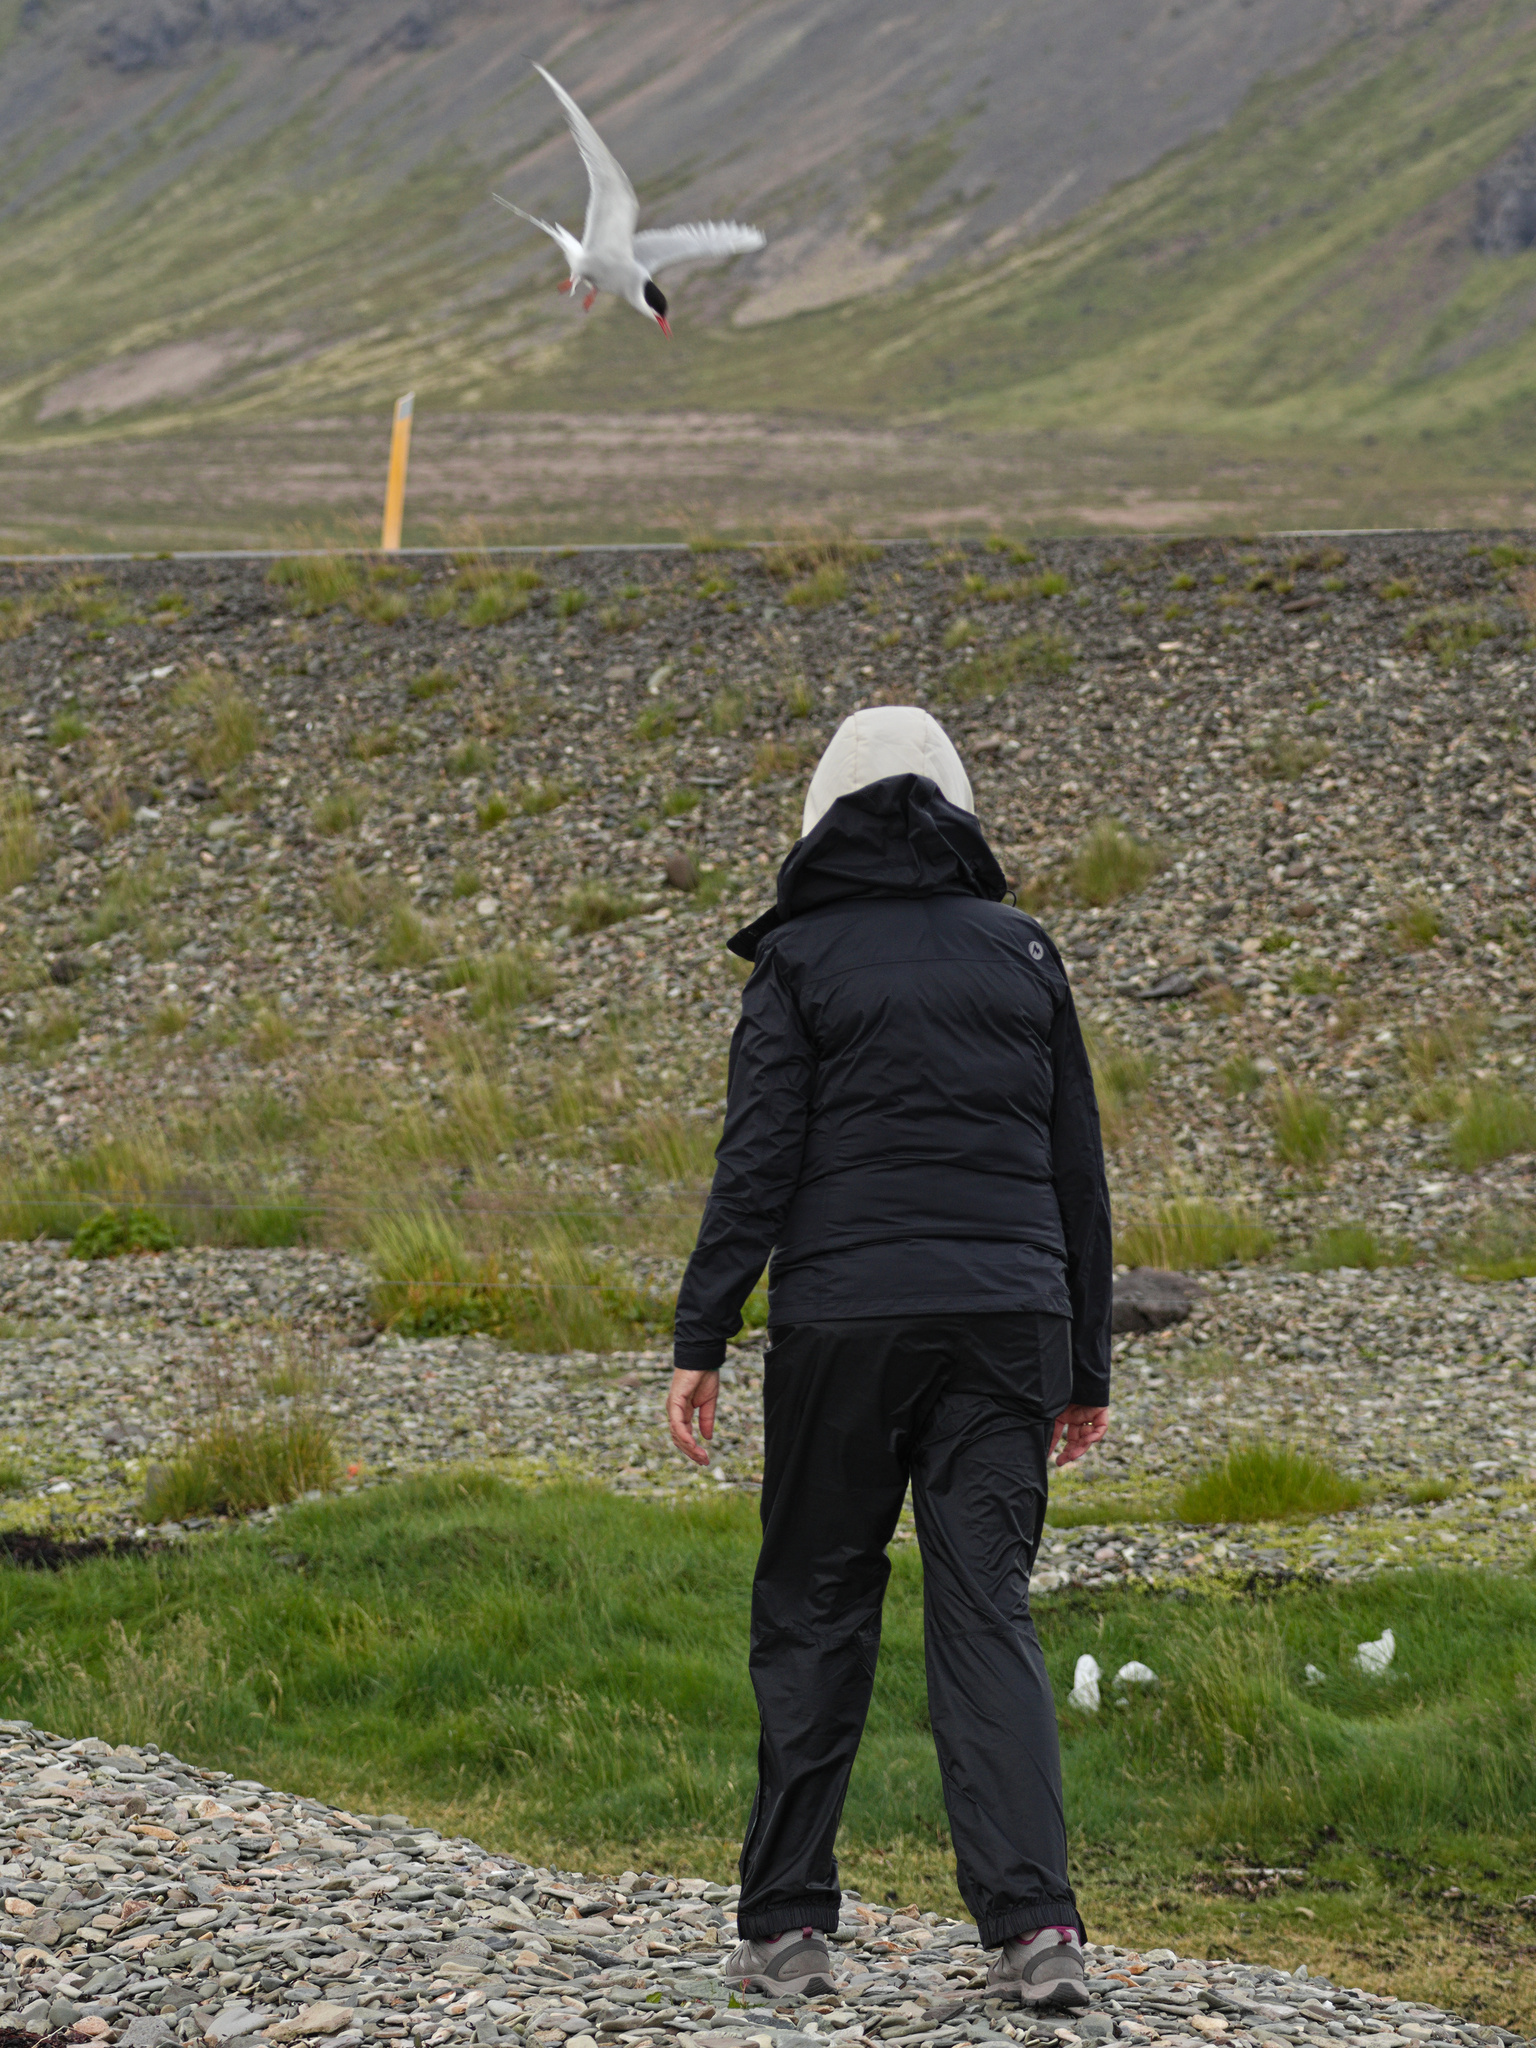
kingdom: Animalia
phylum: Chordata
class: Aves
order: Charadriiformes
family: Laridae
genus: Sterna
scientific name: Sterna paradisaea
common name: Arctic tern
